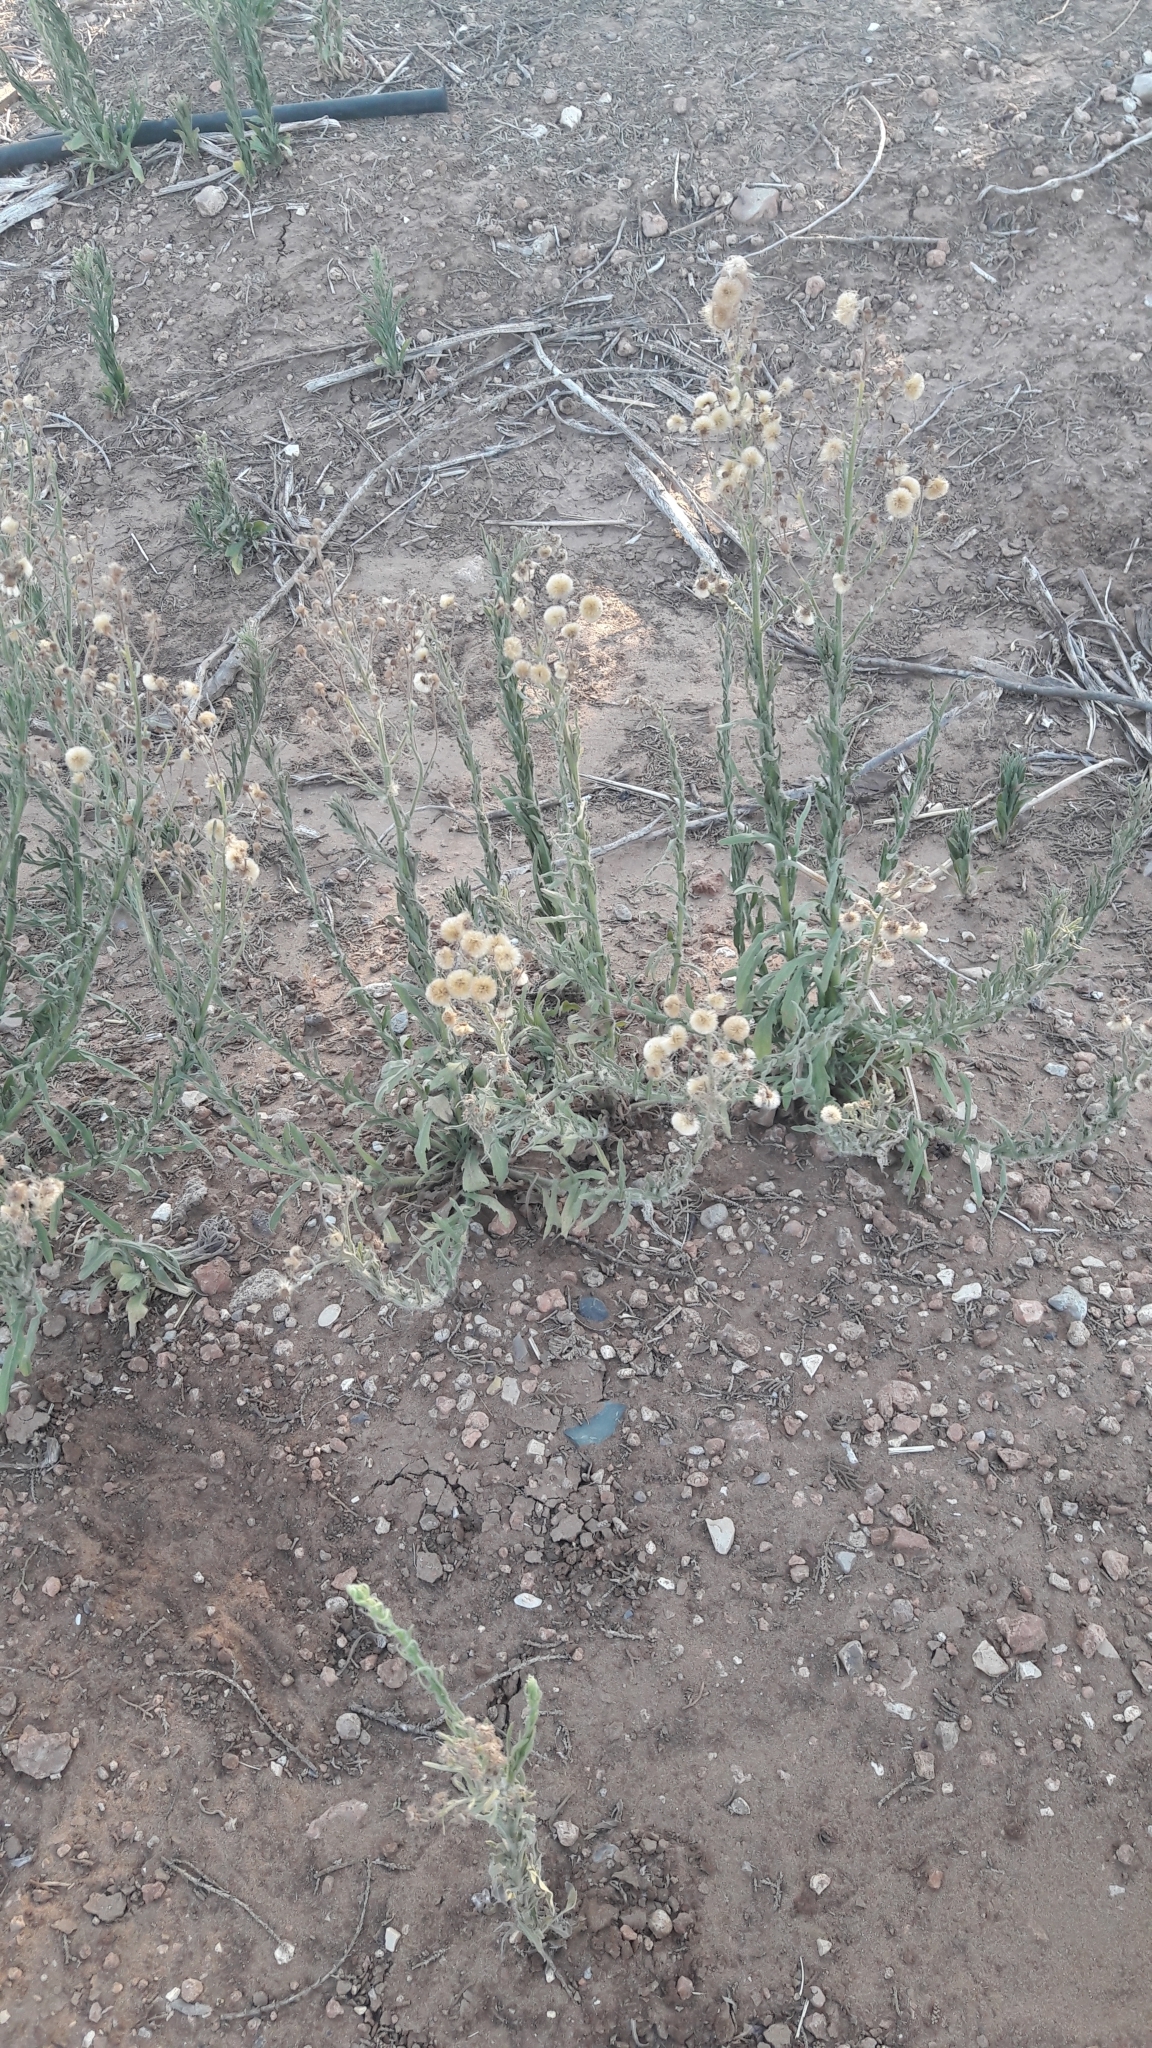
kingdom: Plantae
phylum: Tracheophyta
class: Magnoliopsida
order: Asterales
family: Asteraceae
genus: Erigeron
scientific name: Erigeron bonariensis
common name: Argentine fleabane
